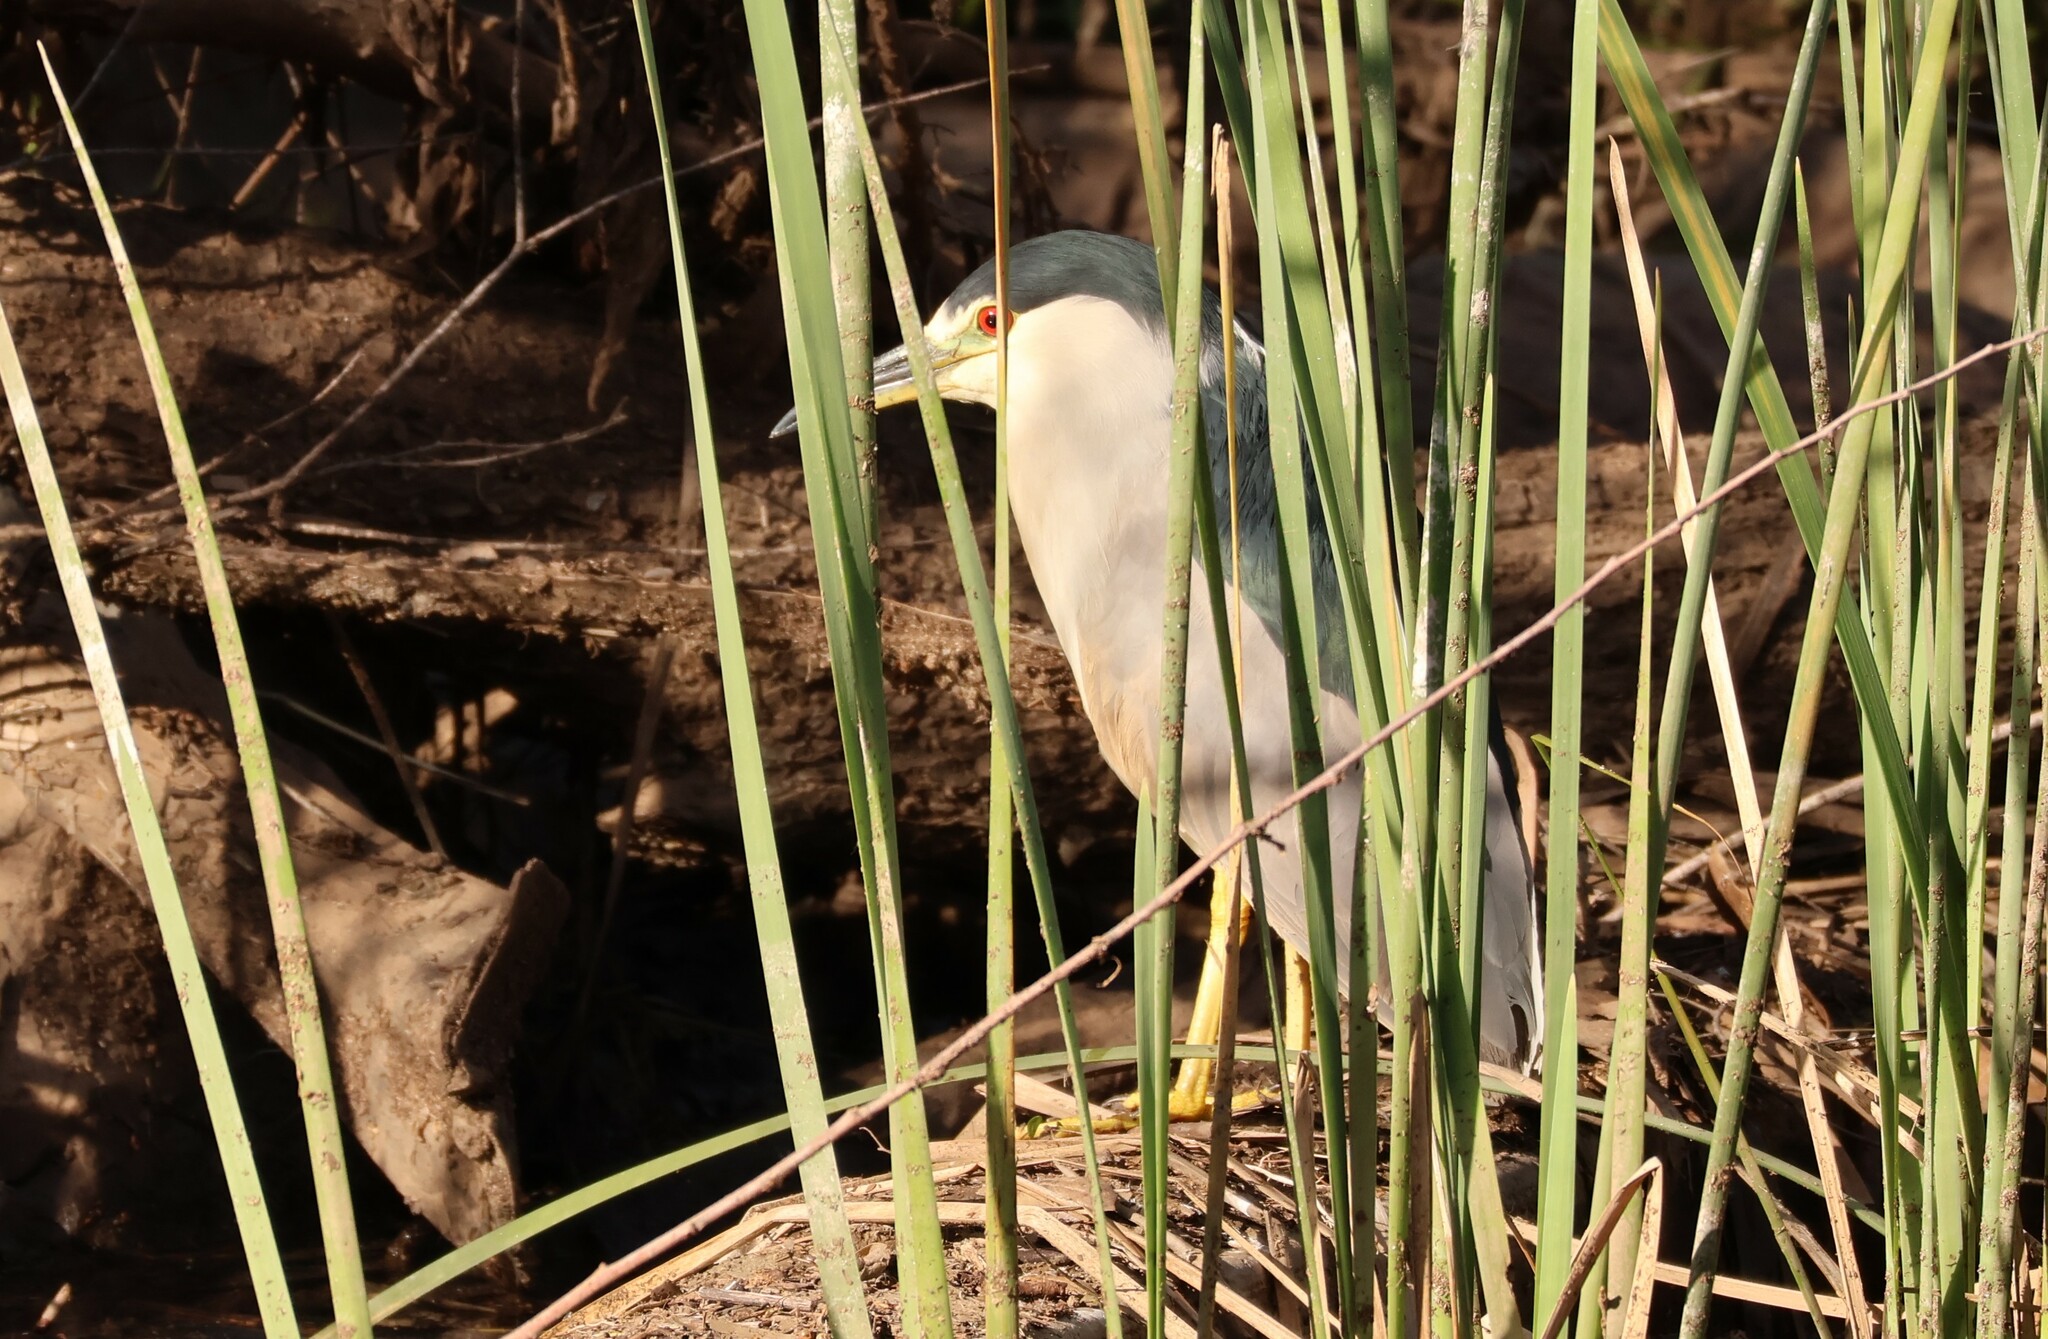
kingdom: Animalia
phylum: Chordata
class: Aves
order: Pelecaniformes
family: Ardeidae
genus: Nycticorax
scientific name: Nycticorax nycticorax
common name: Black-crowned night heron
